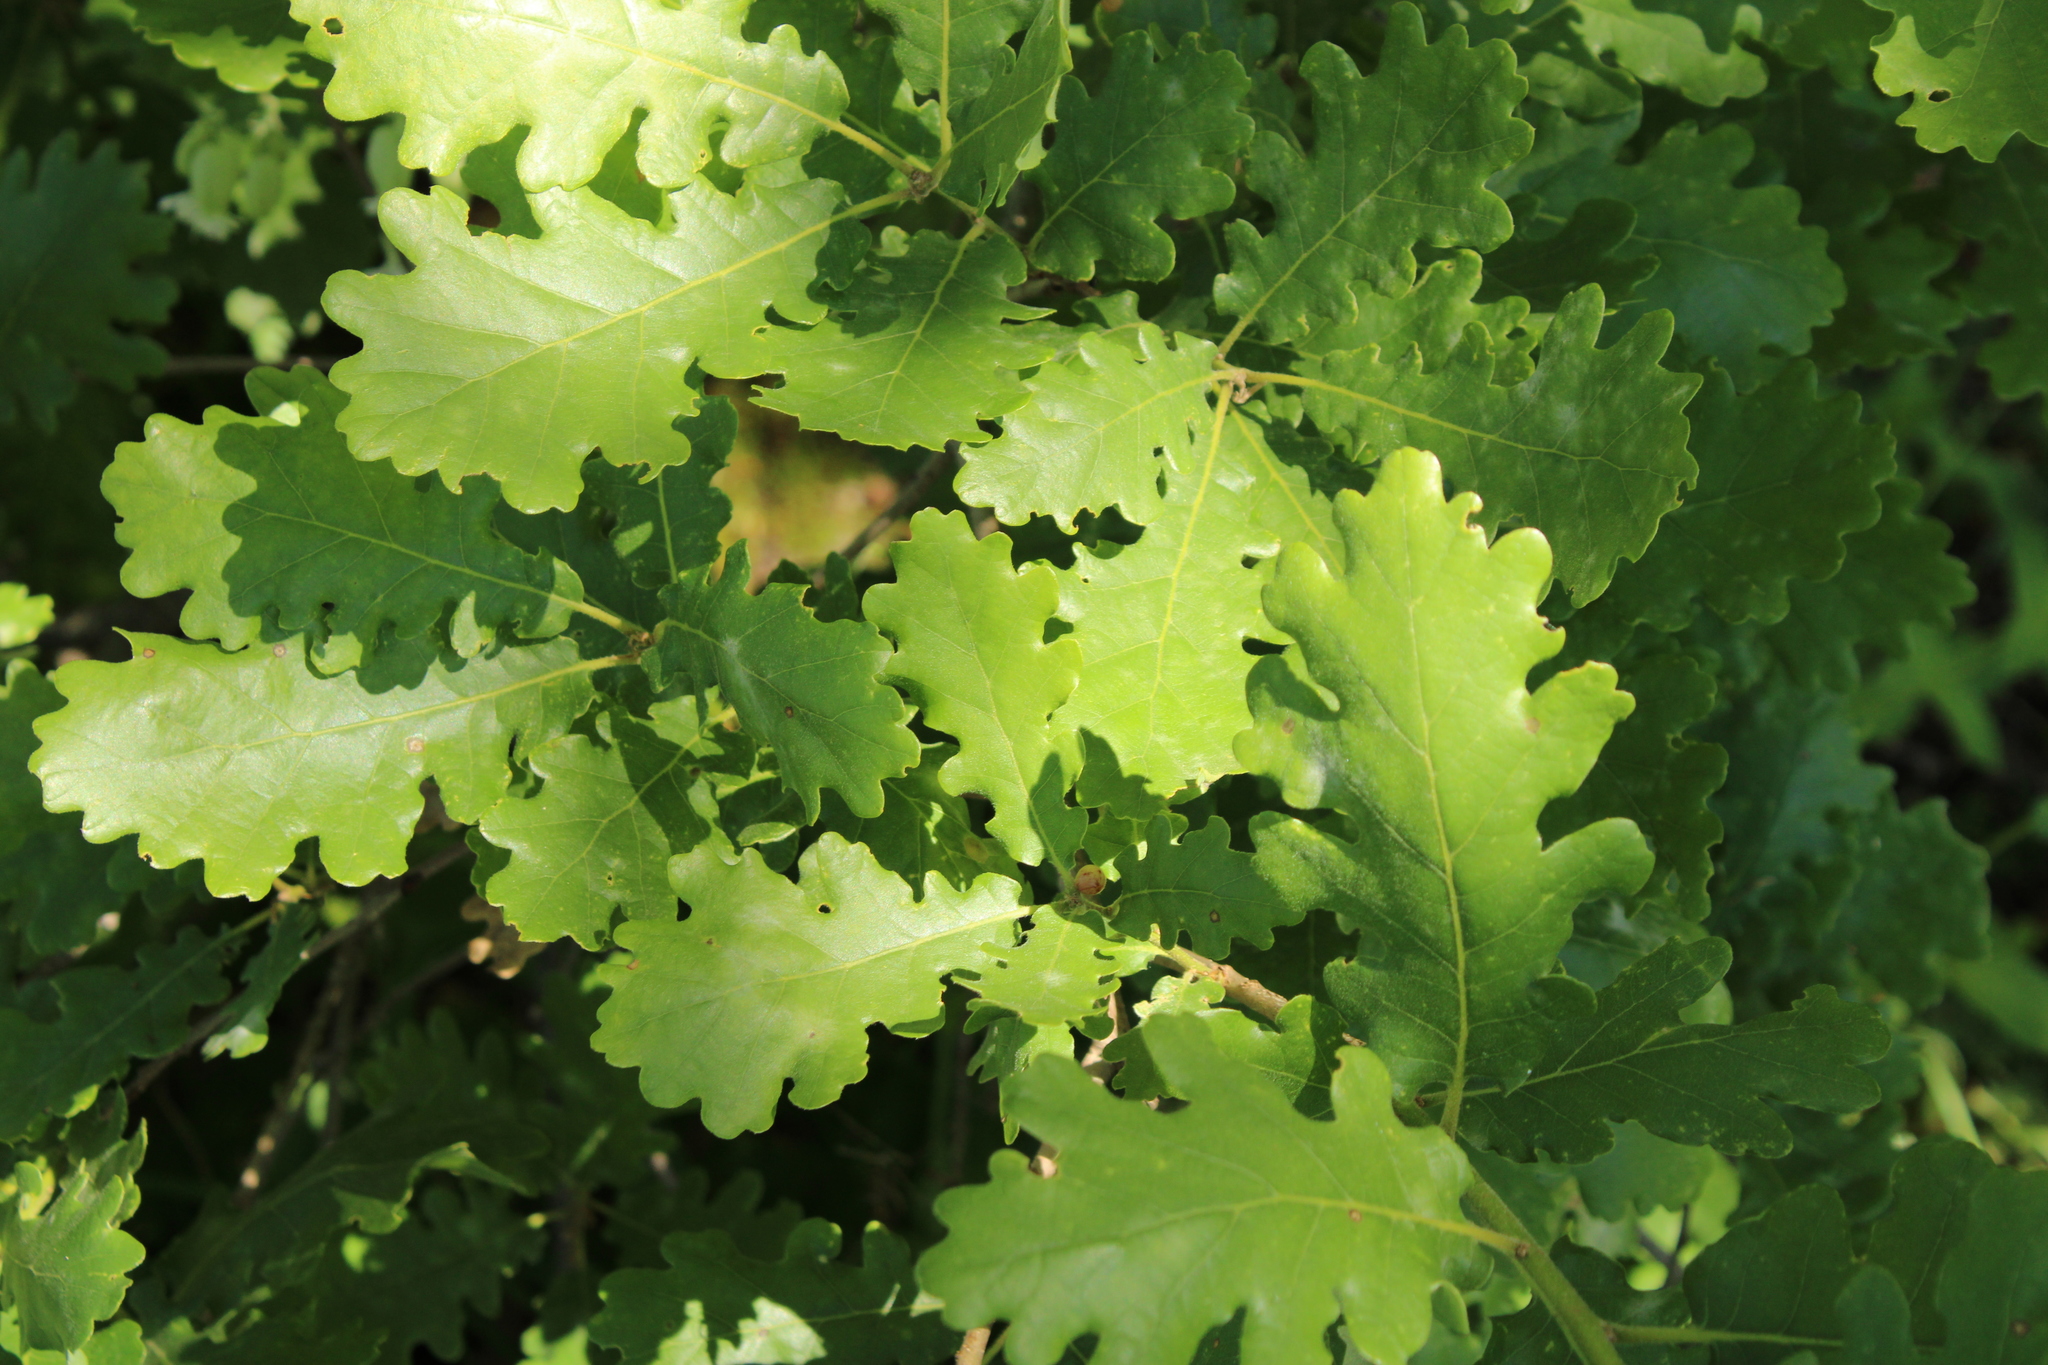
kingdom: Plantae
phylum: Tracheophyta
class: Magnoliopsida
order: Fagales
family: Fagaceae
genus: Quercus
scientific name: Quercus pubescens
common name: Downy oak
